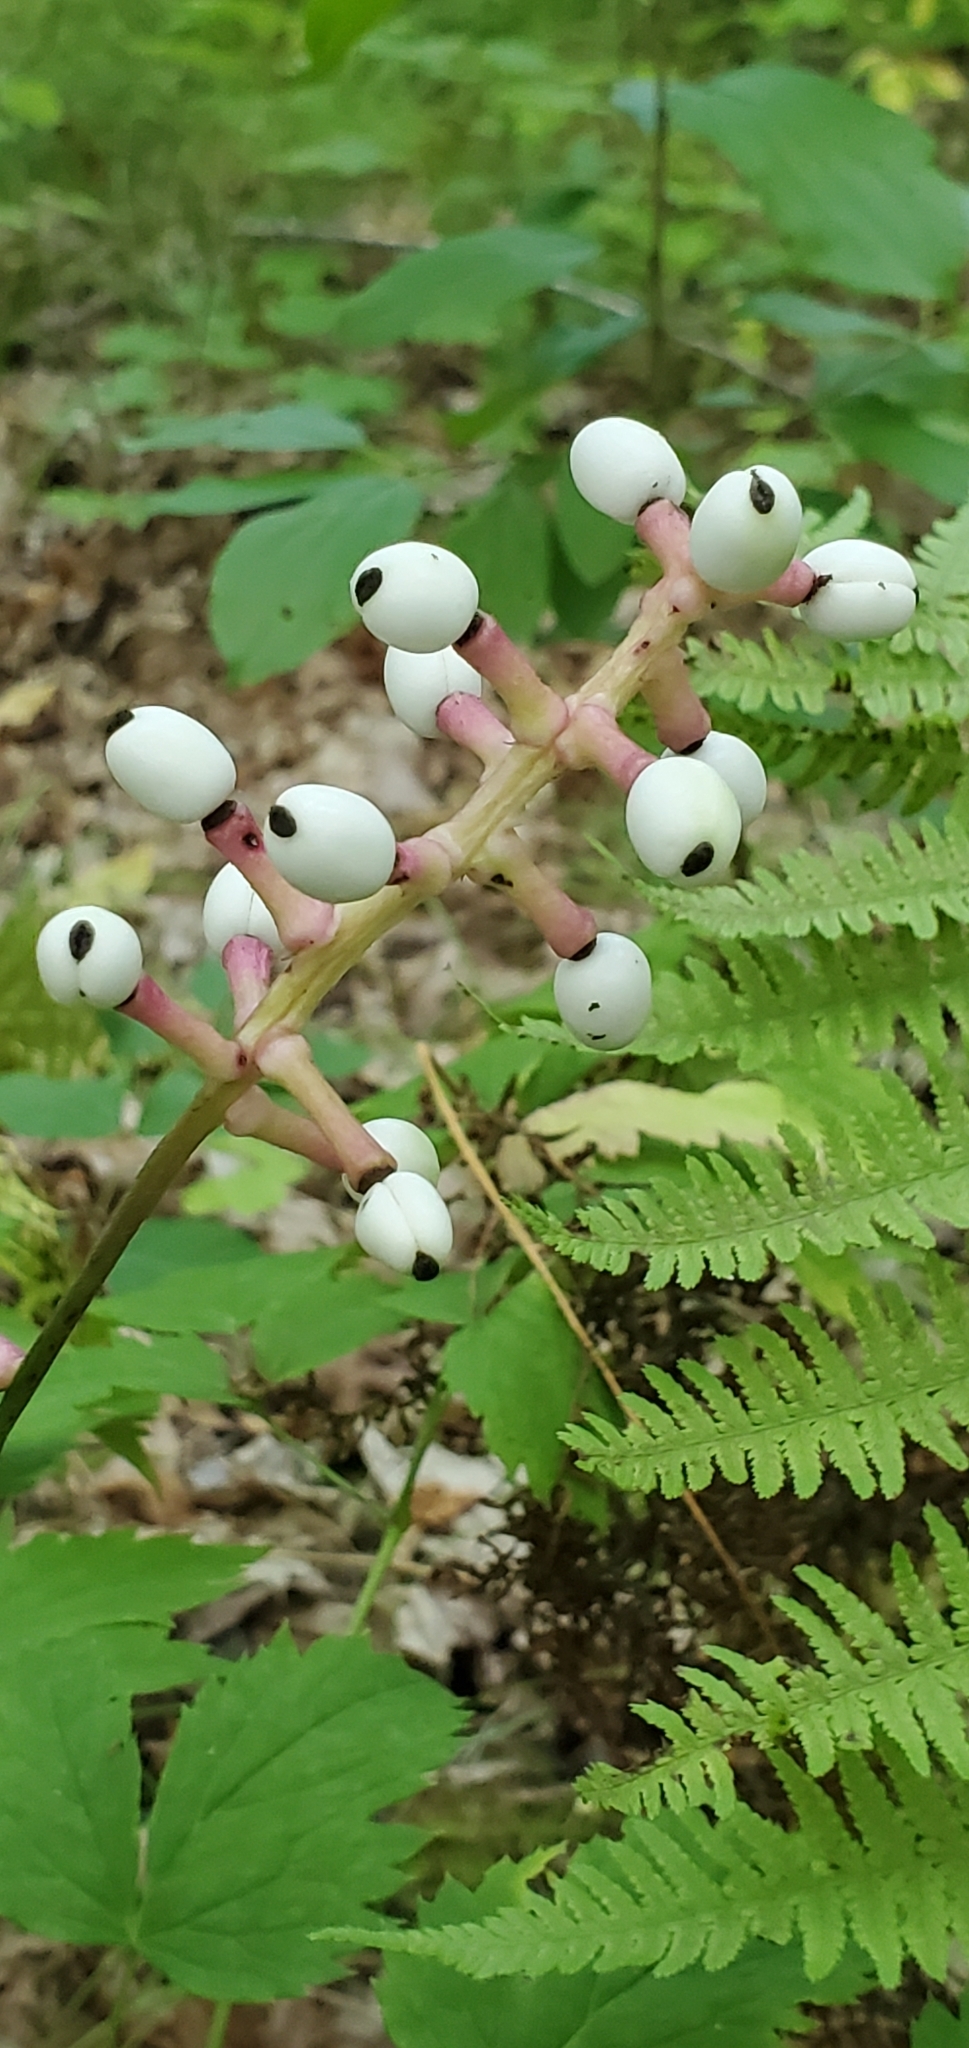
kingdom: Plantae
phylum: Tracheophyta
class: Magnoliopsida
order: Ranunculales
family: Ranunculaceae
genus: Actaea
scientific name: Actaea pachypoda
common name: Doll's-eyes
